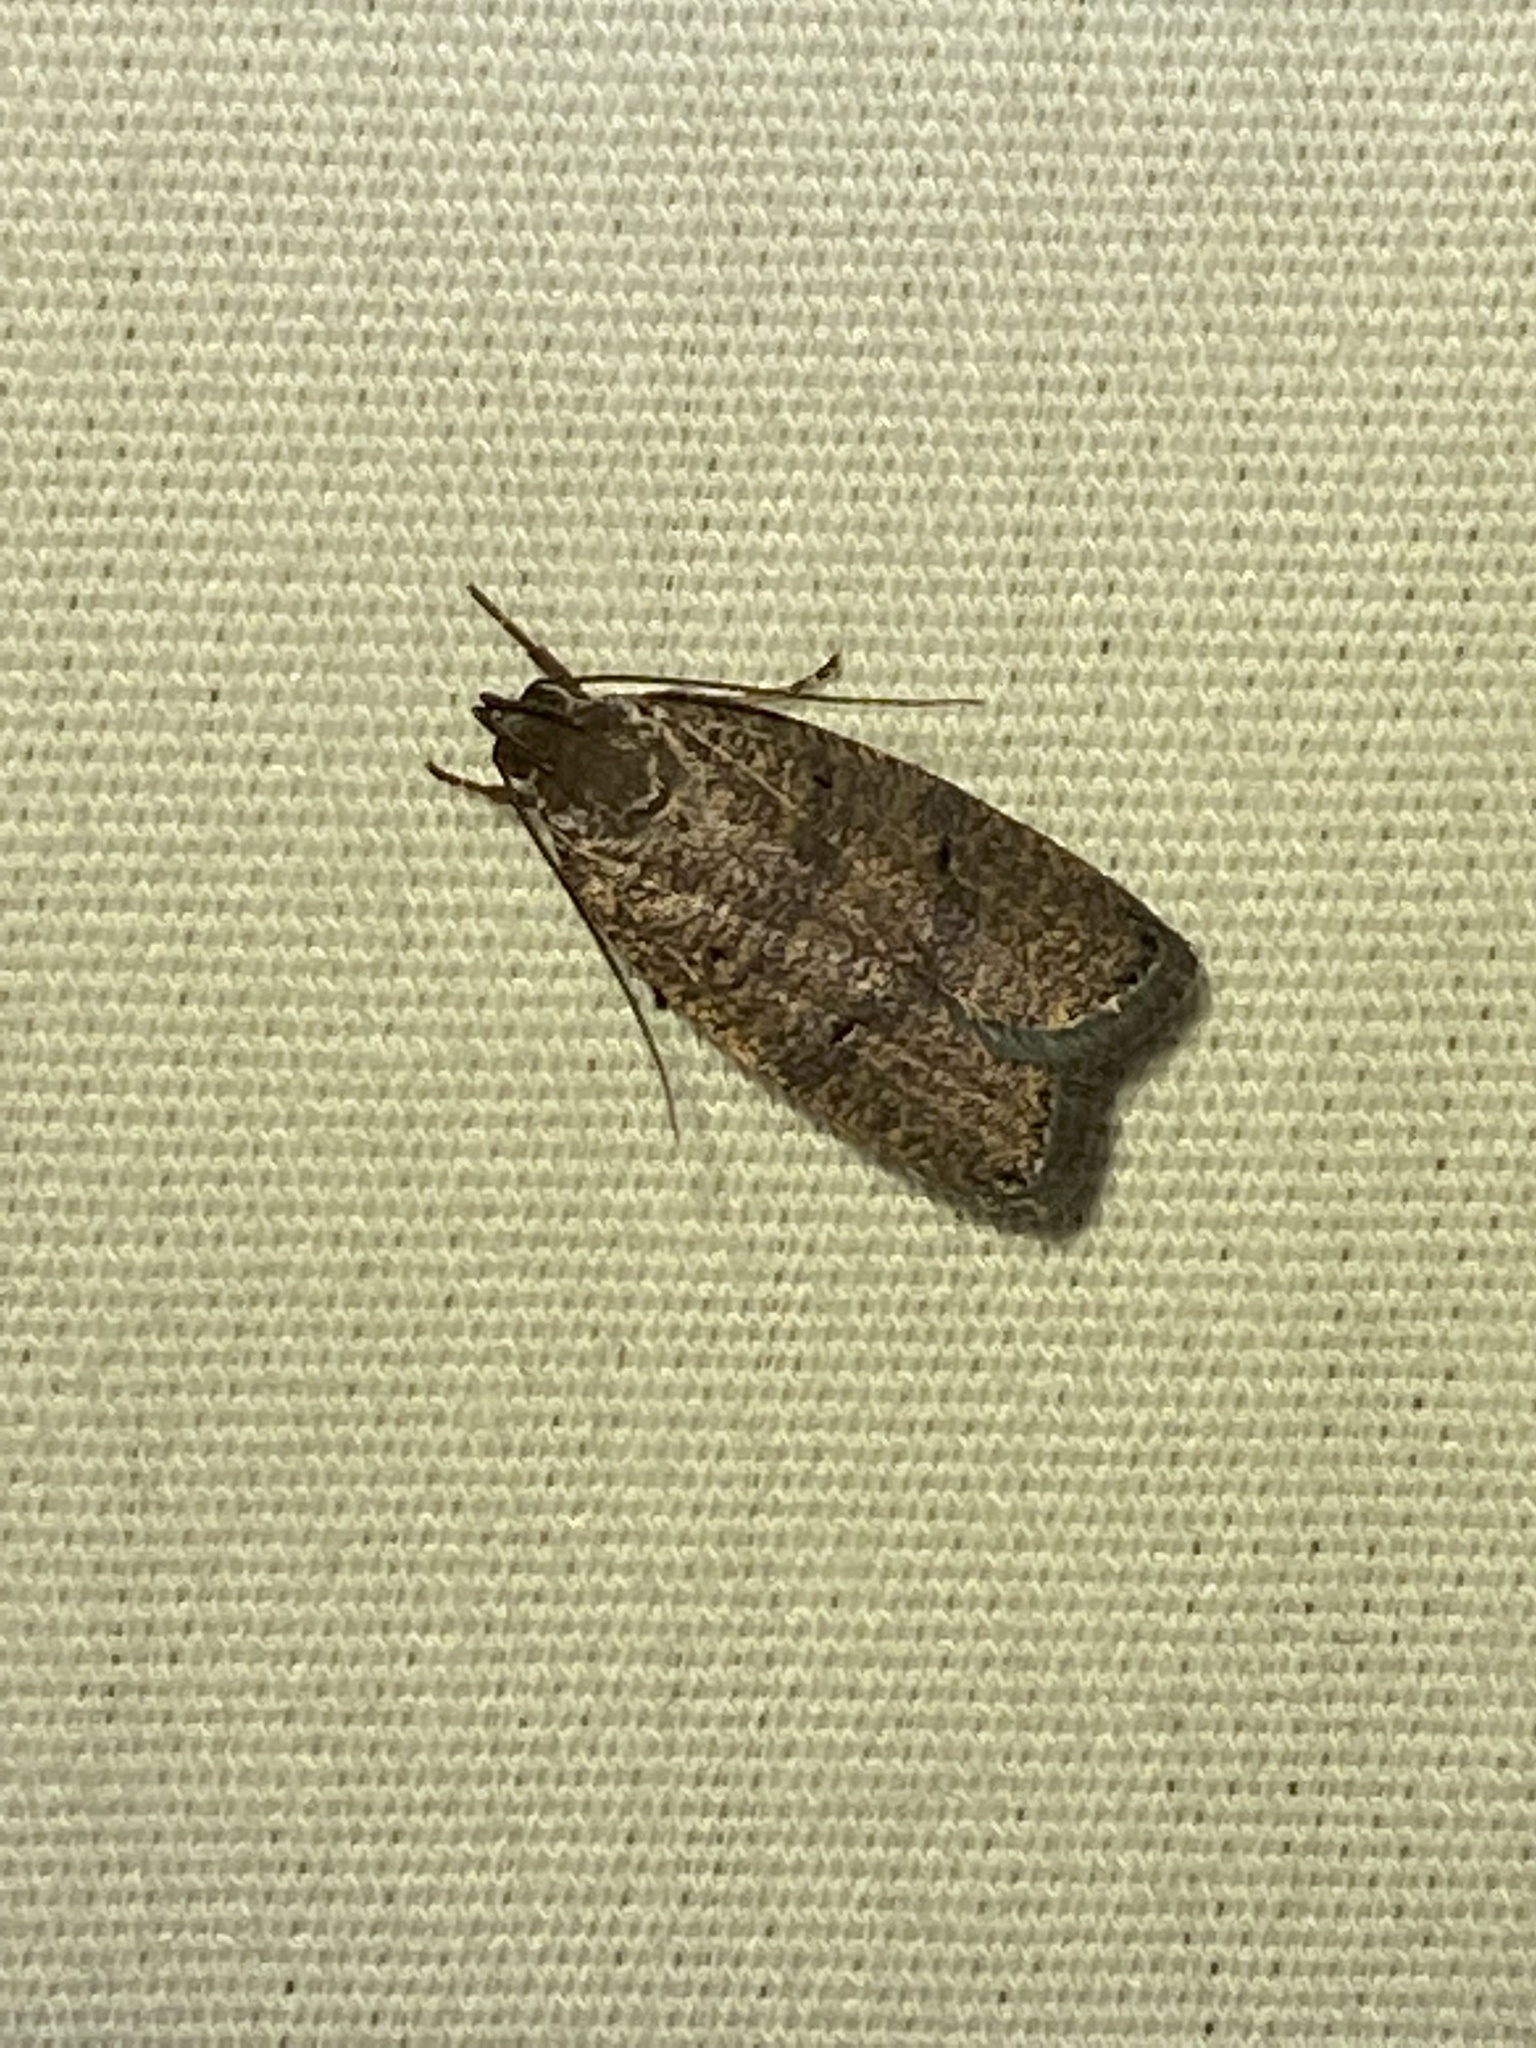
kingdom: Animalia
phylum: Arthropoda
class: Insecta
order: Lepidoptera
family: Depressariidae
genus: Psilocorsis
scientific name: Psilocorsis reflexella
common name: Dotted leaftier moth
